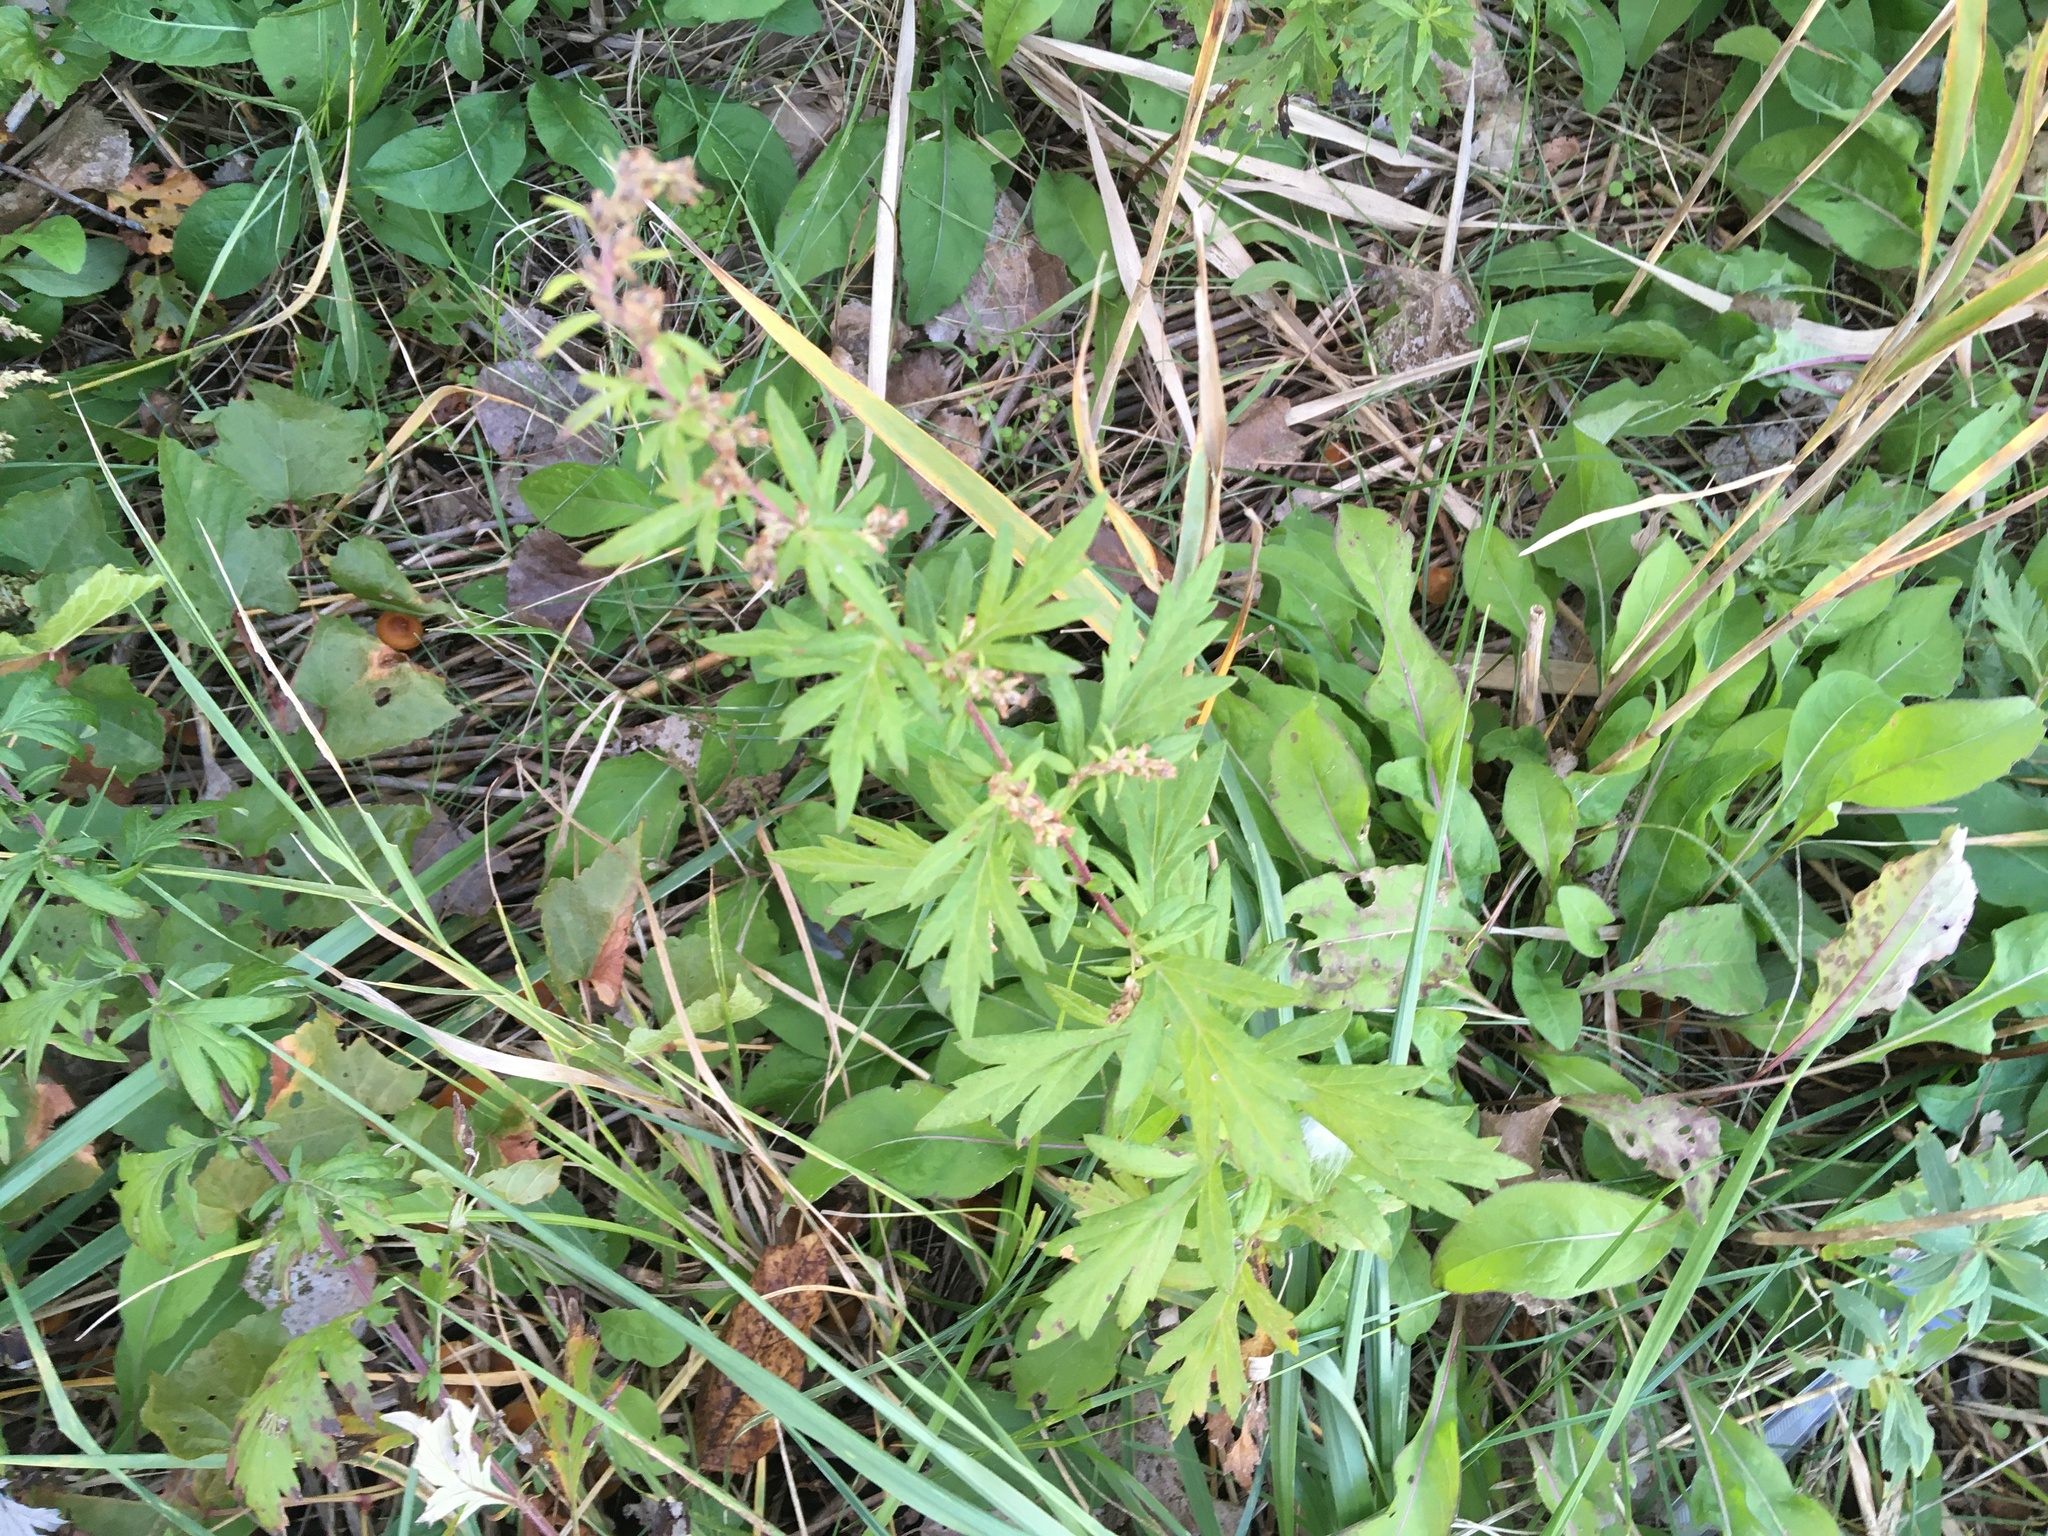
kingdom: Plantae
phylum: Tracheophyta
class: Magnoliopsida
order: Asterales
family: Asteraceae
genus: Artemisia
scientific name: Artemisia vulgaris
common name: Mugwort
